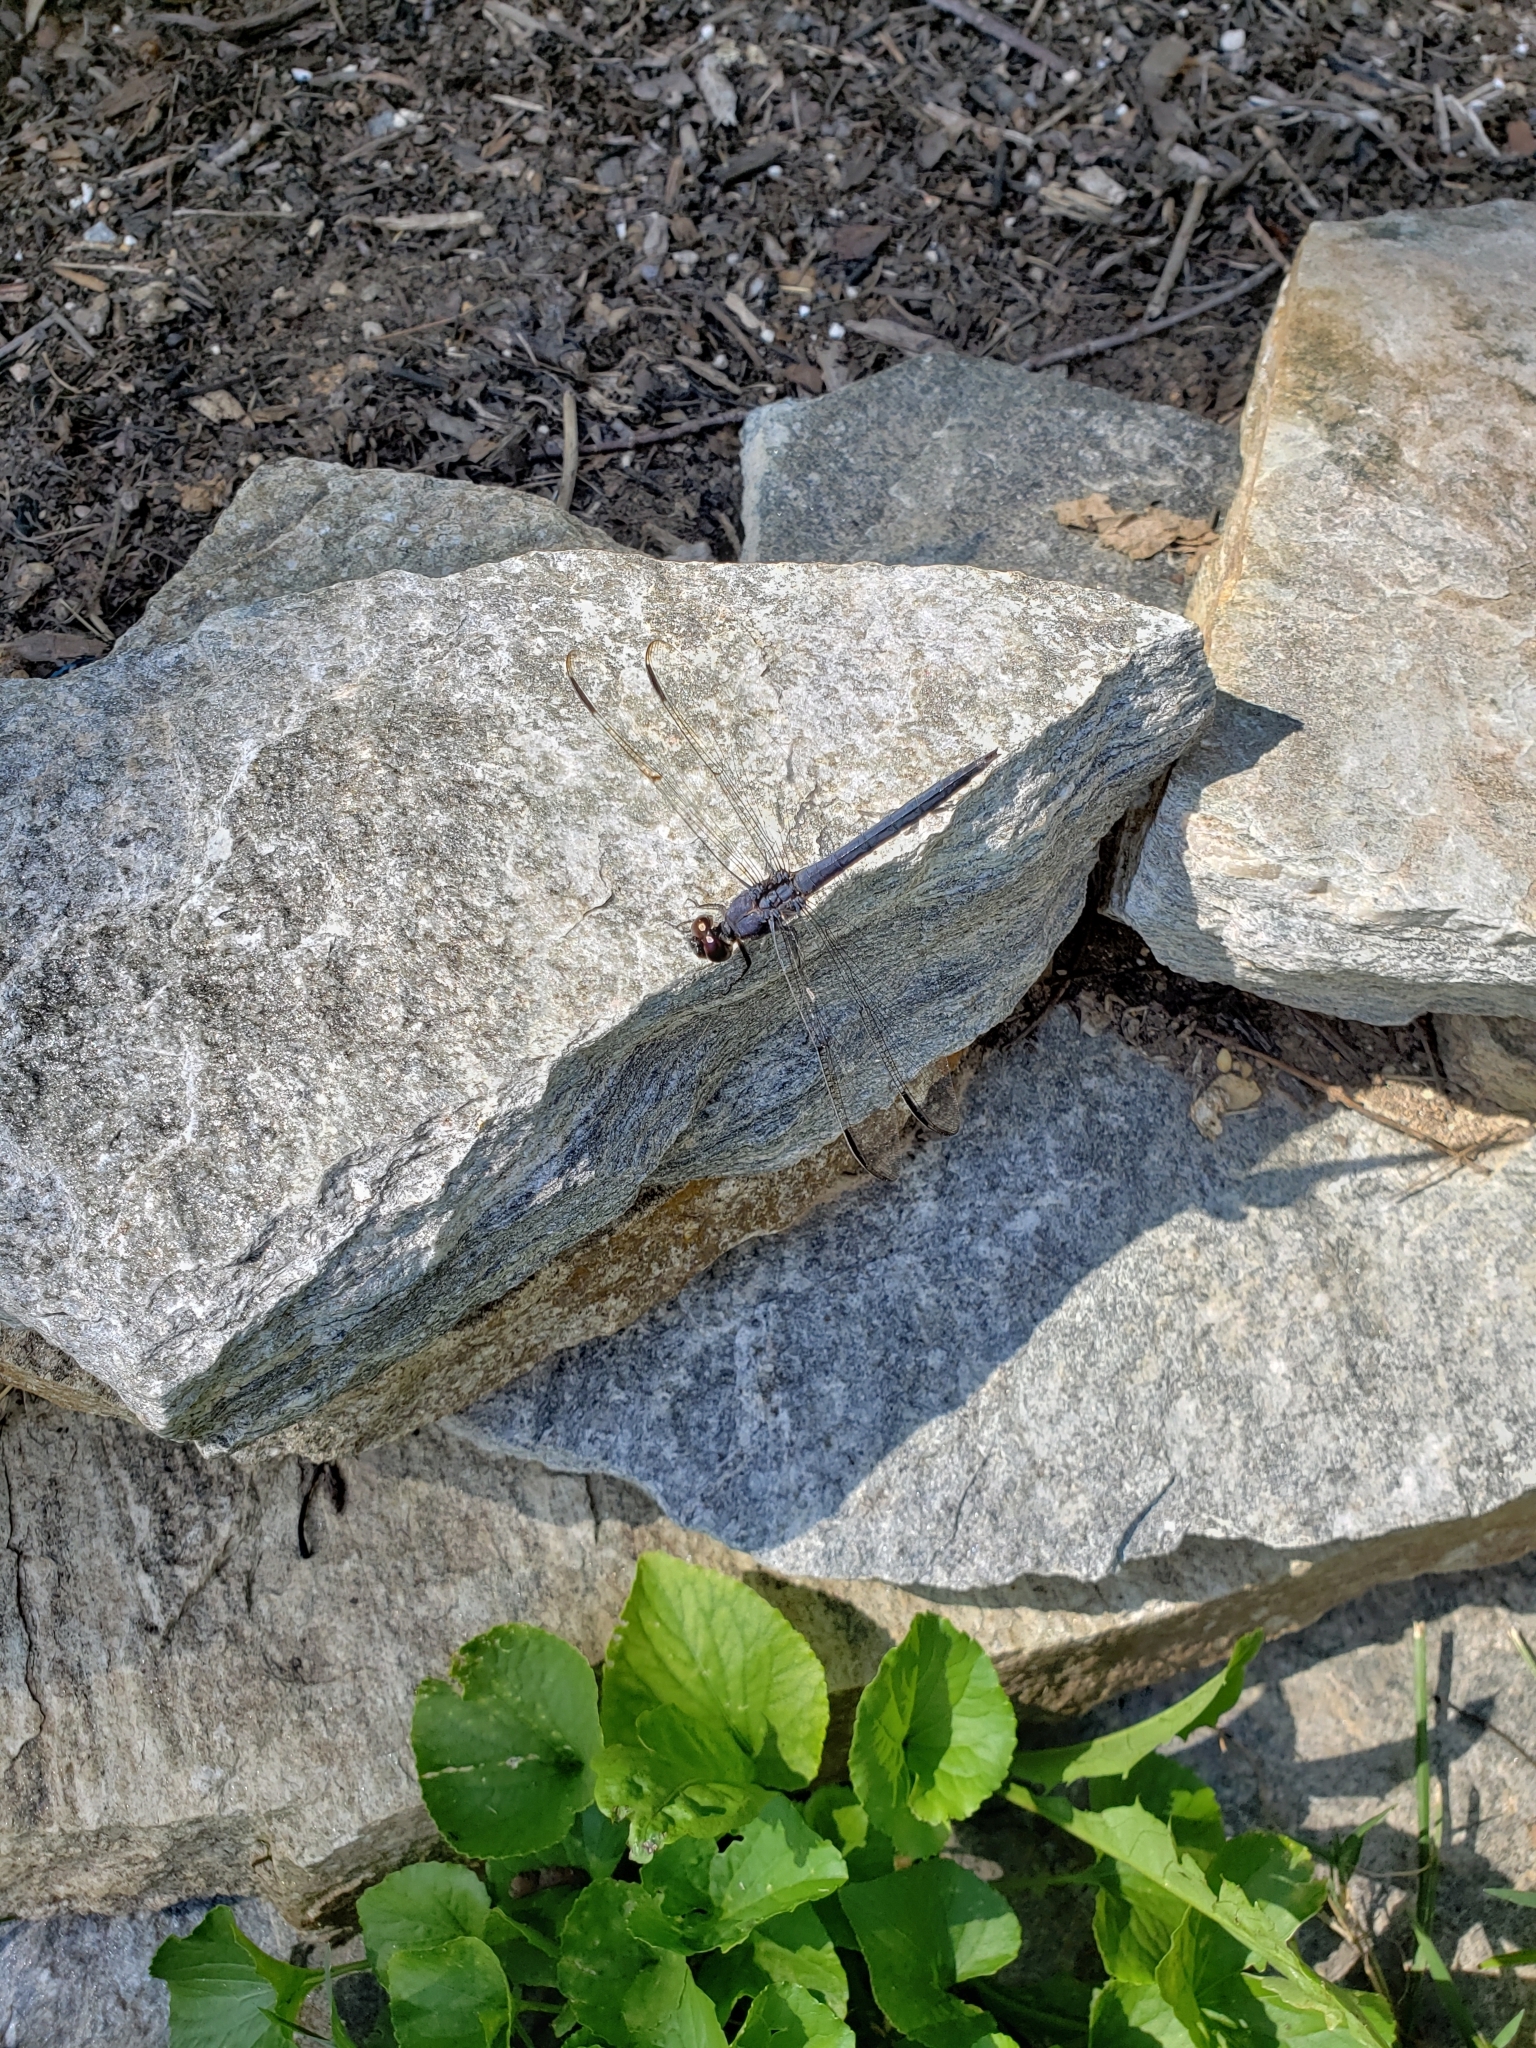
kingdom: Animalia
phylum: Arthropoda
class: Insecta
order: Odonata
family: Libellulidae
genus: Libellula
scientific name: Libellula incesta
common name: Slaty skimmer
